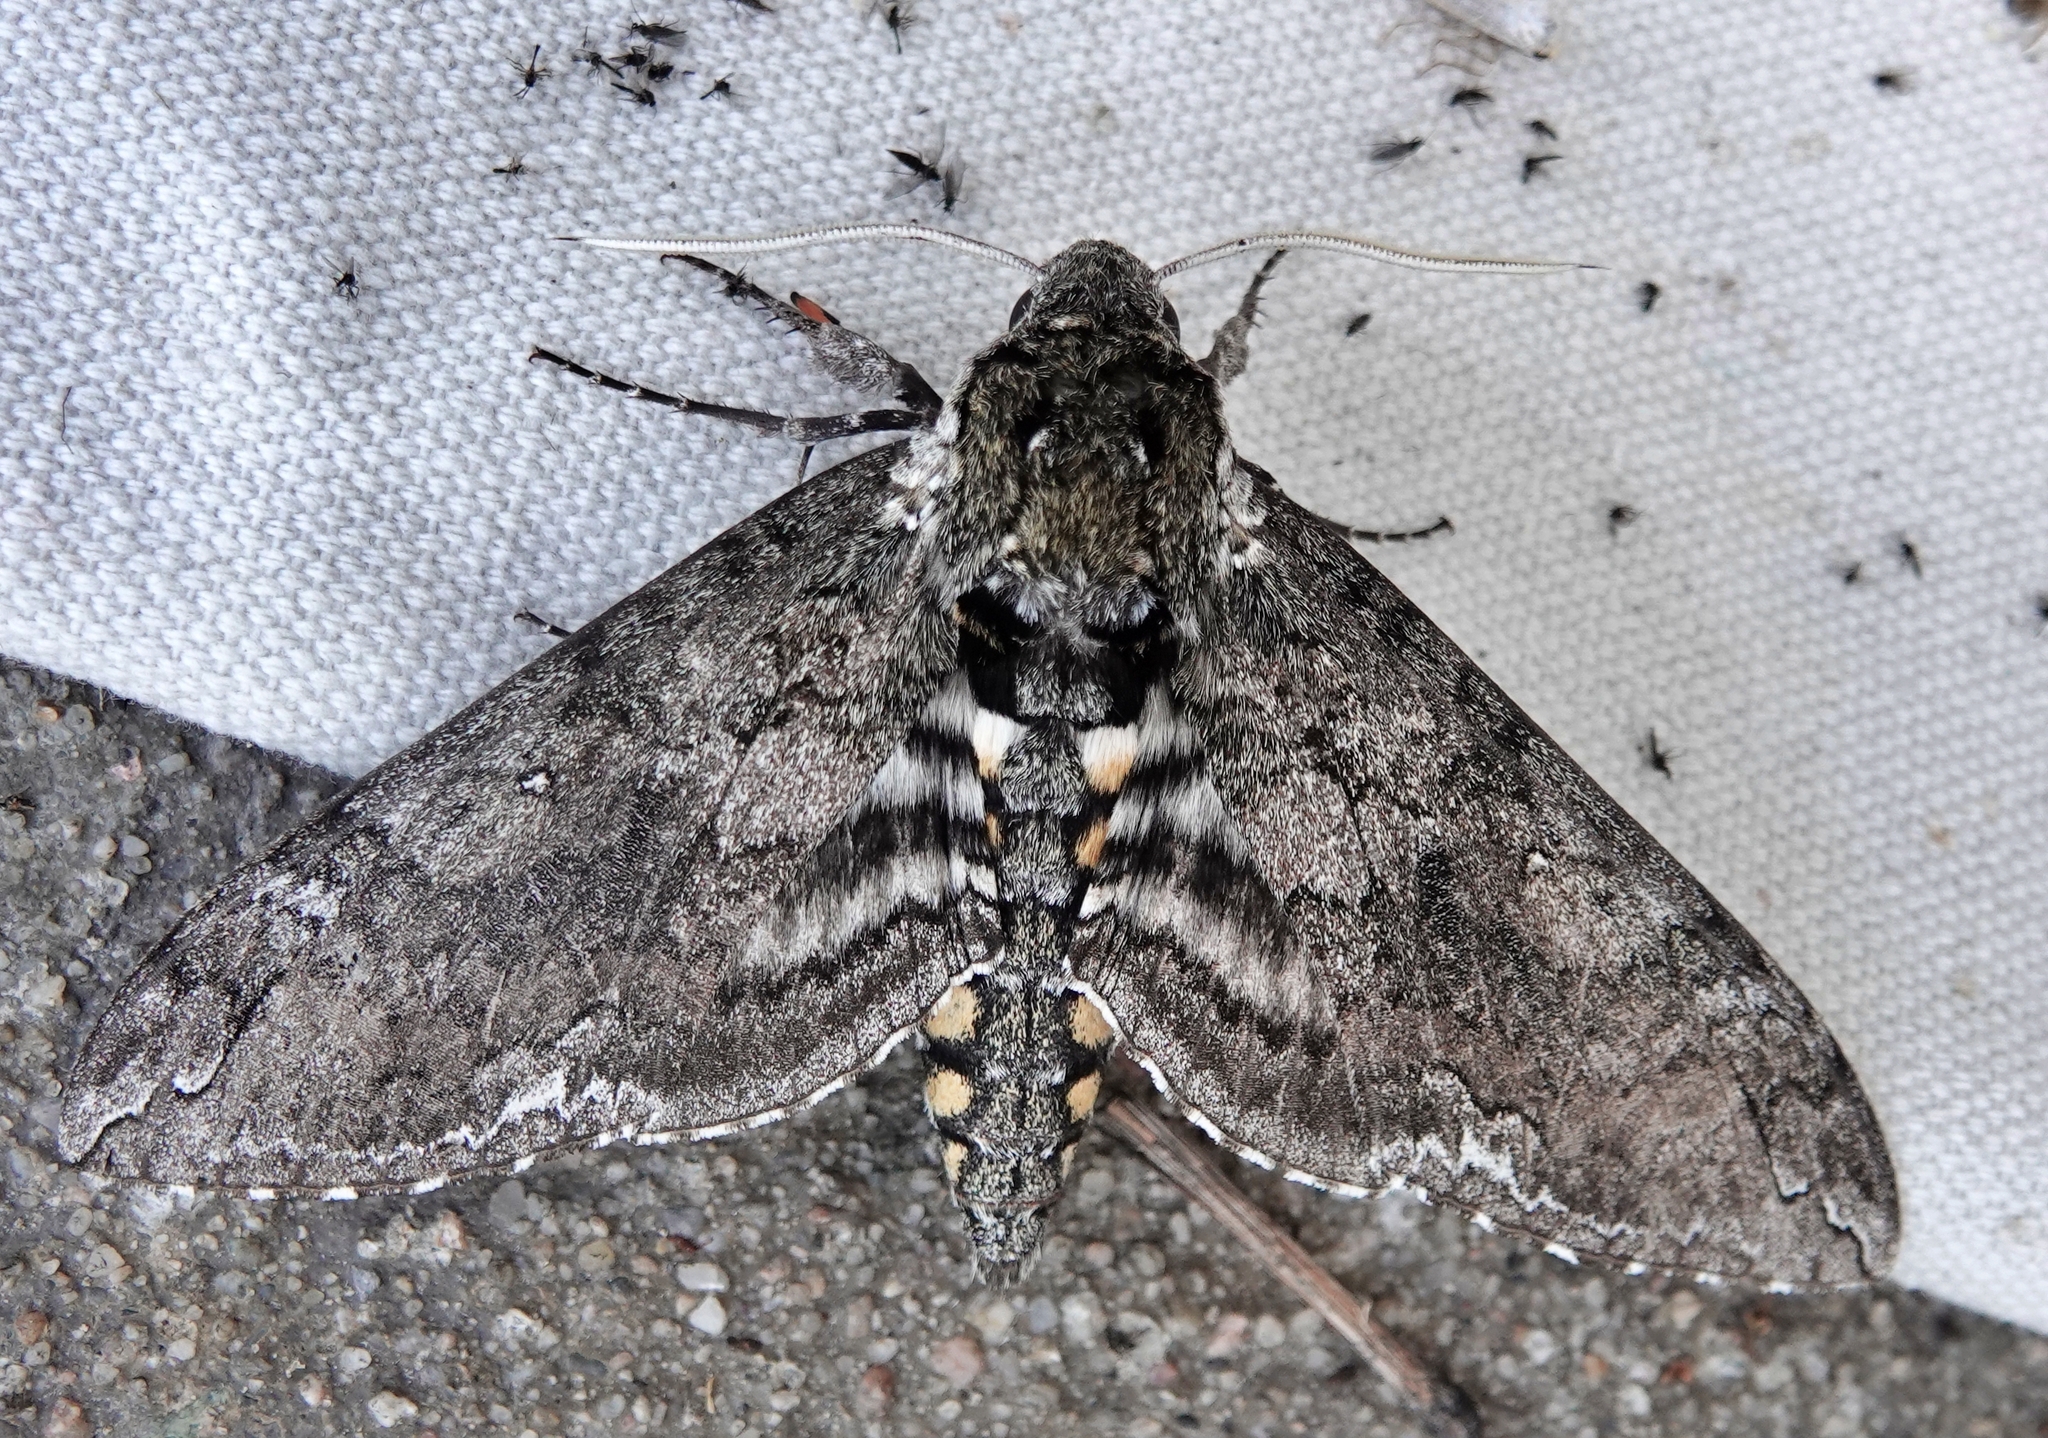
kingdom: Animalia
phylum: Arthropoda
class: Insecta
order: Lepidoptera
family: Sphingidae
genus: Manduca
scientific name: Manduca sexta
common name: Carolina sphinx
